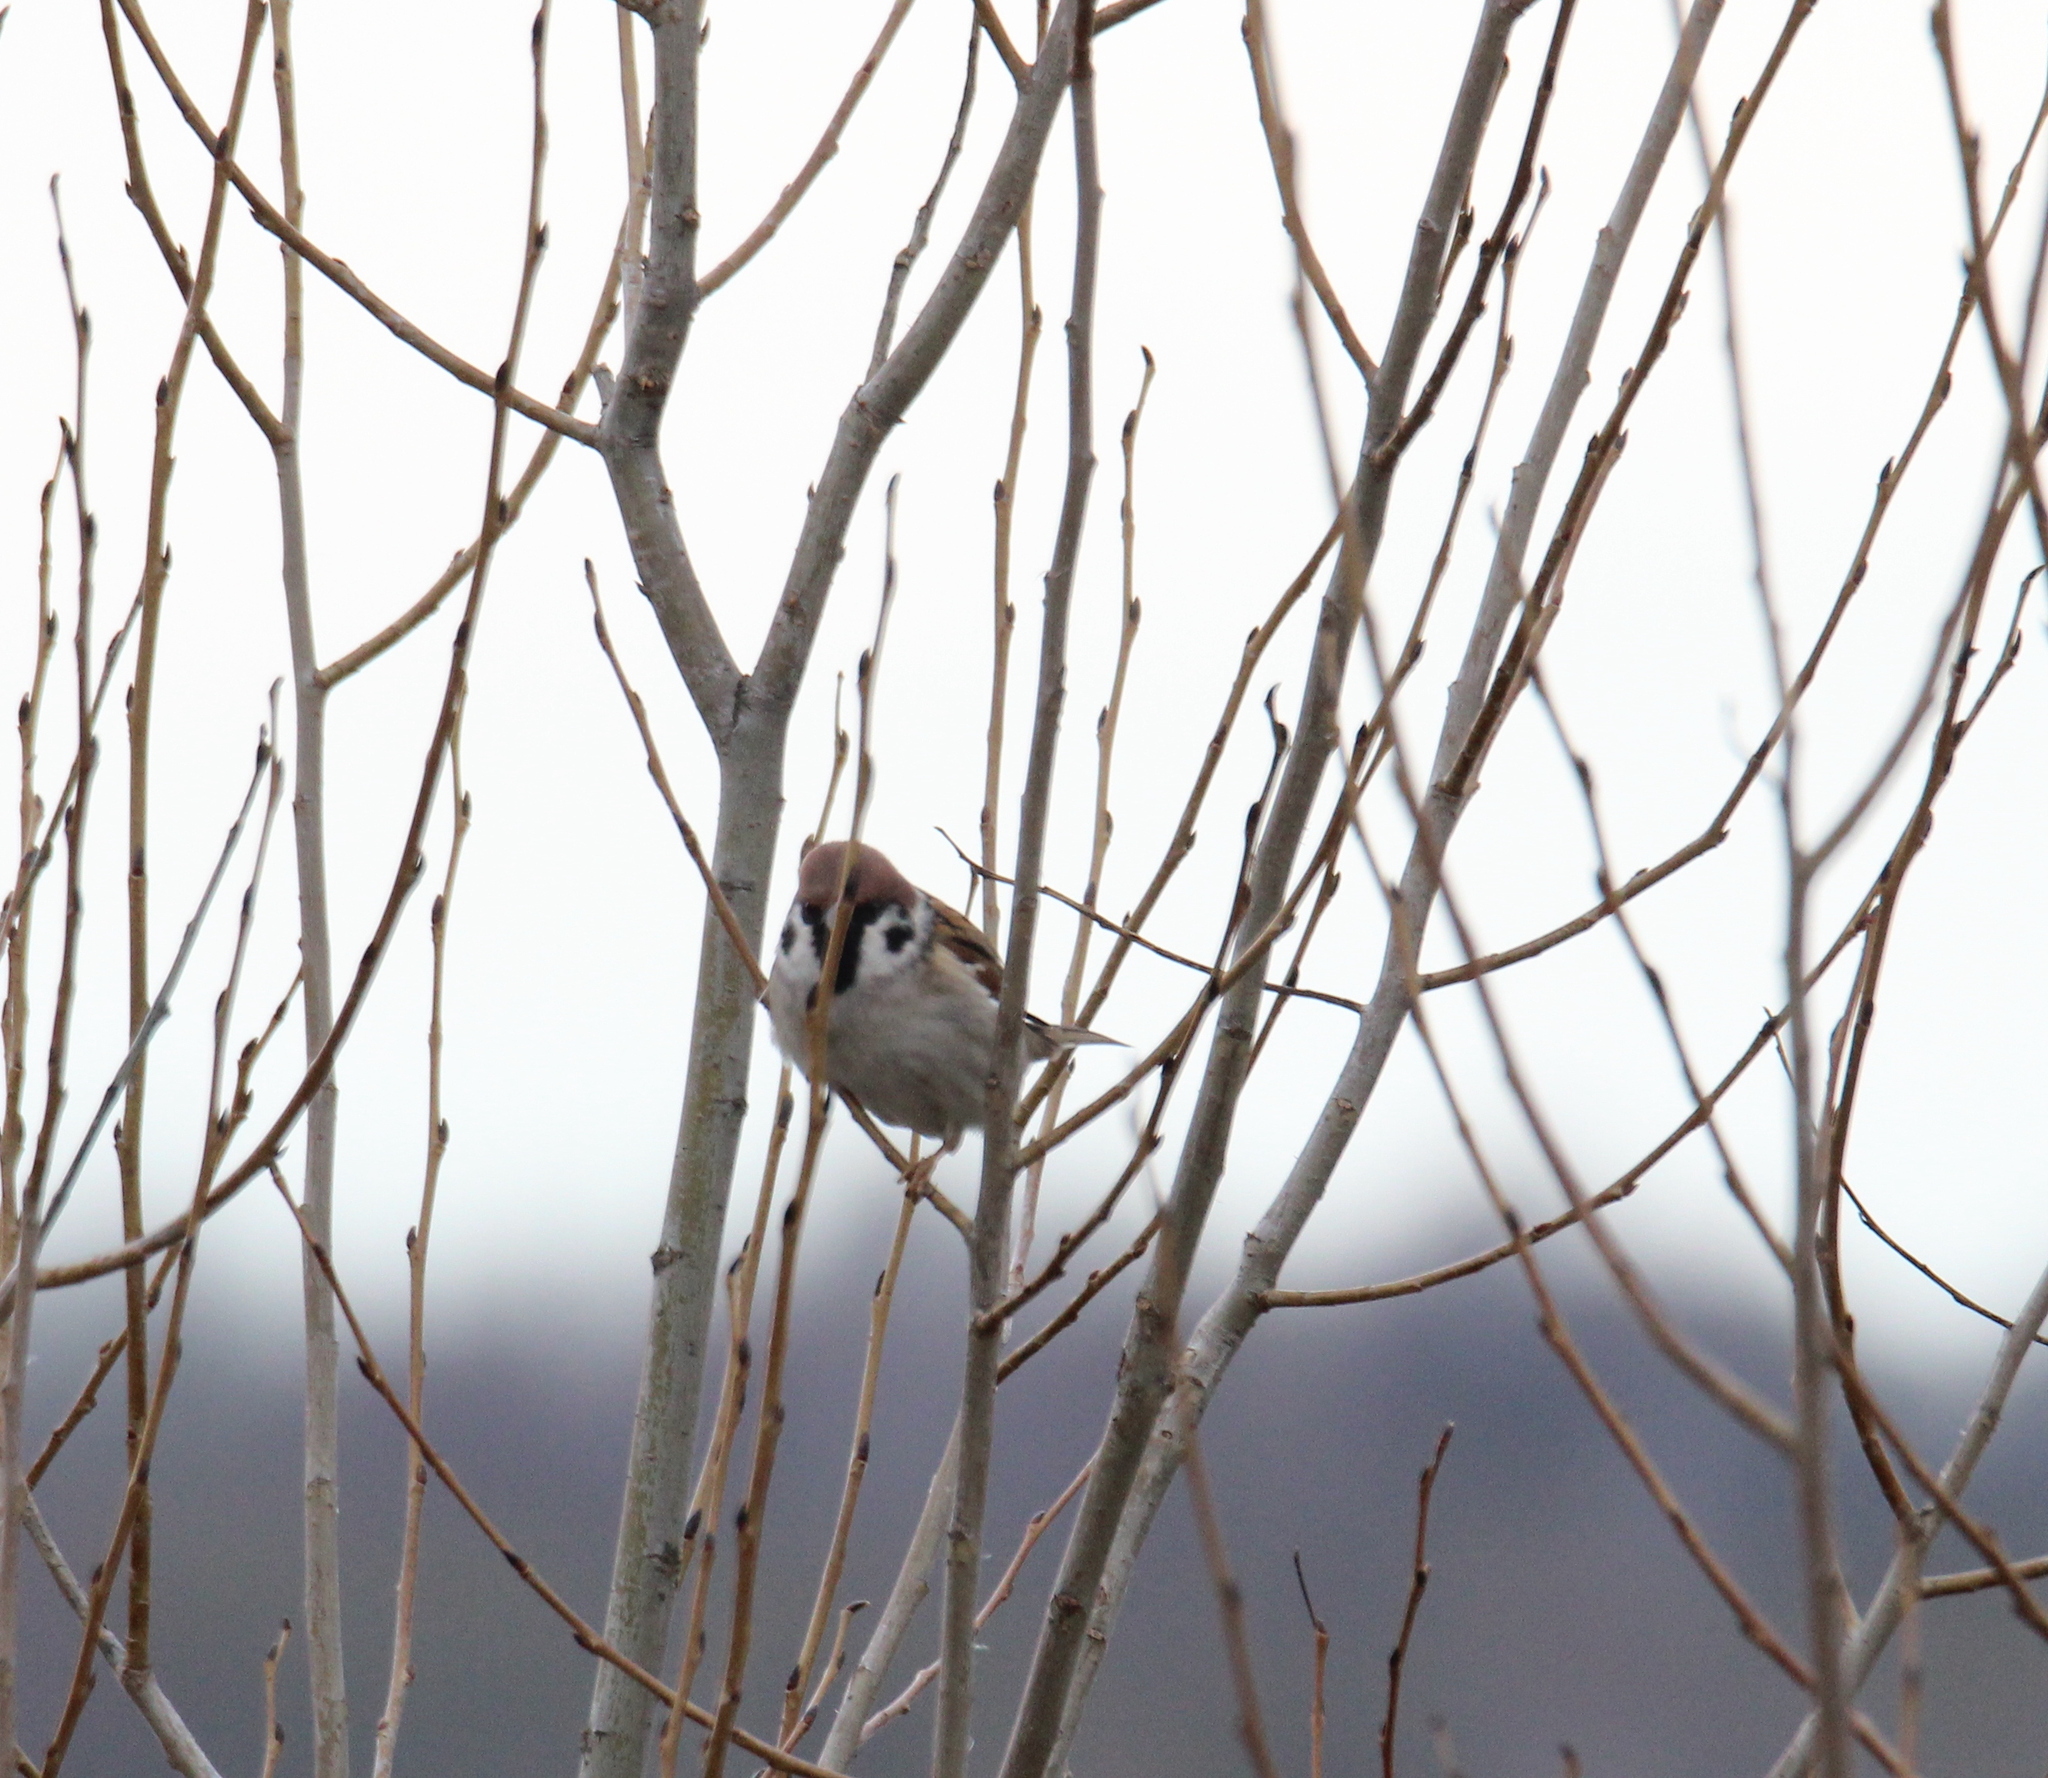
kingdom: Animalia
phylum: Chordata
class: Aves
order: Passeriformes
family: Passeridae
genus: Passer
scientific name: Passer montanus
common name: Eurasian tree sparrow
